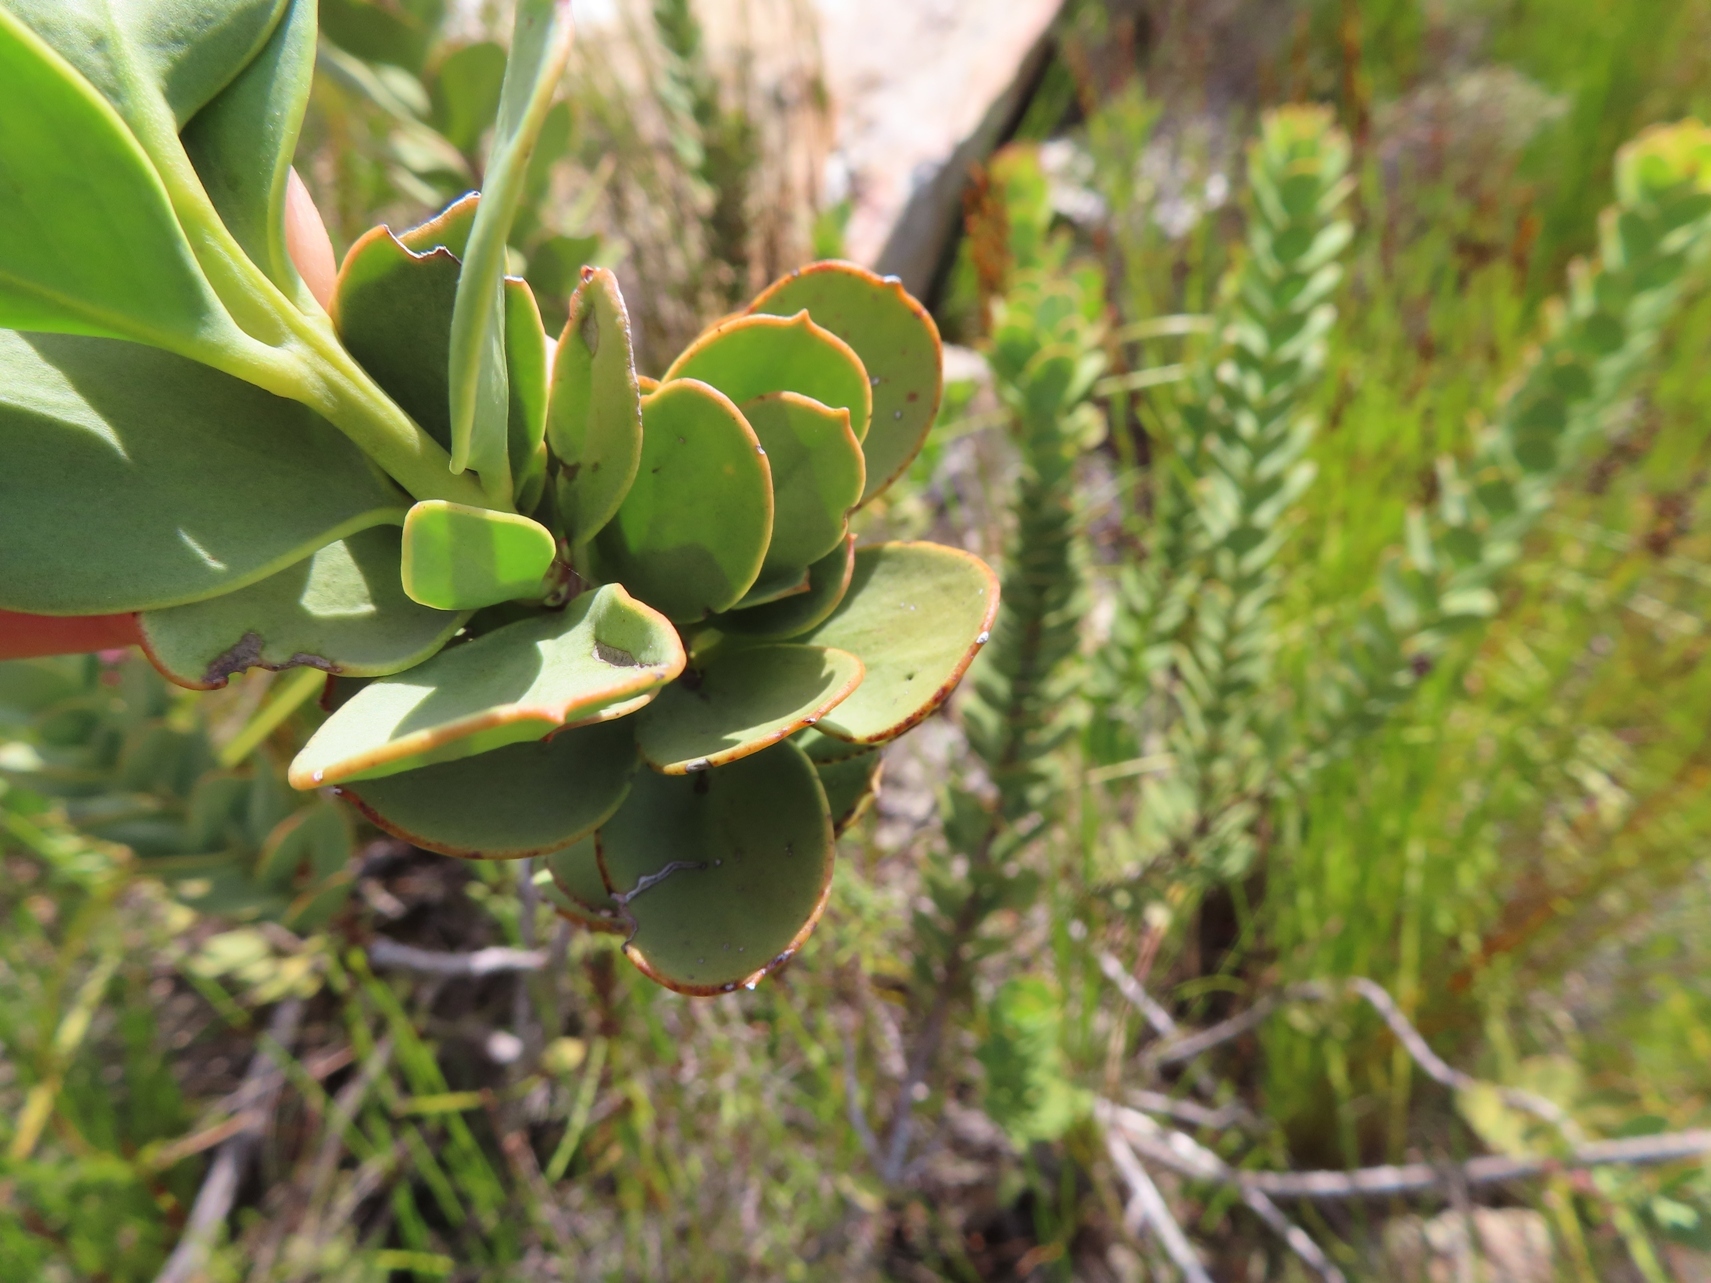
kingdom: Plantae
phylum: Tracheophyta
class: Magnoliopsida
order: Santalales
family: Santalaceae
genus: Osyris
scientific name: Osyris speciosa
